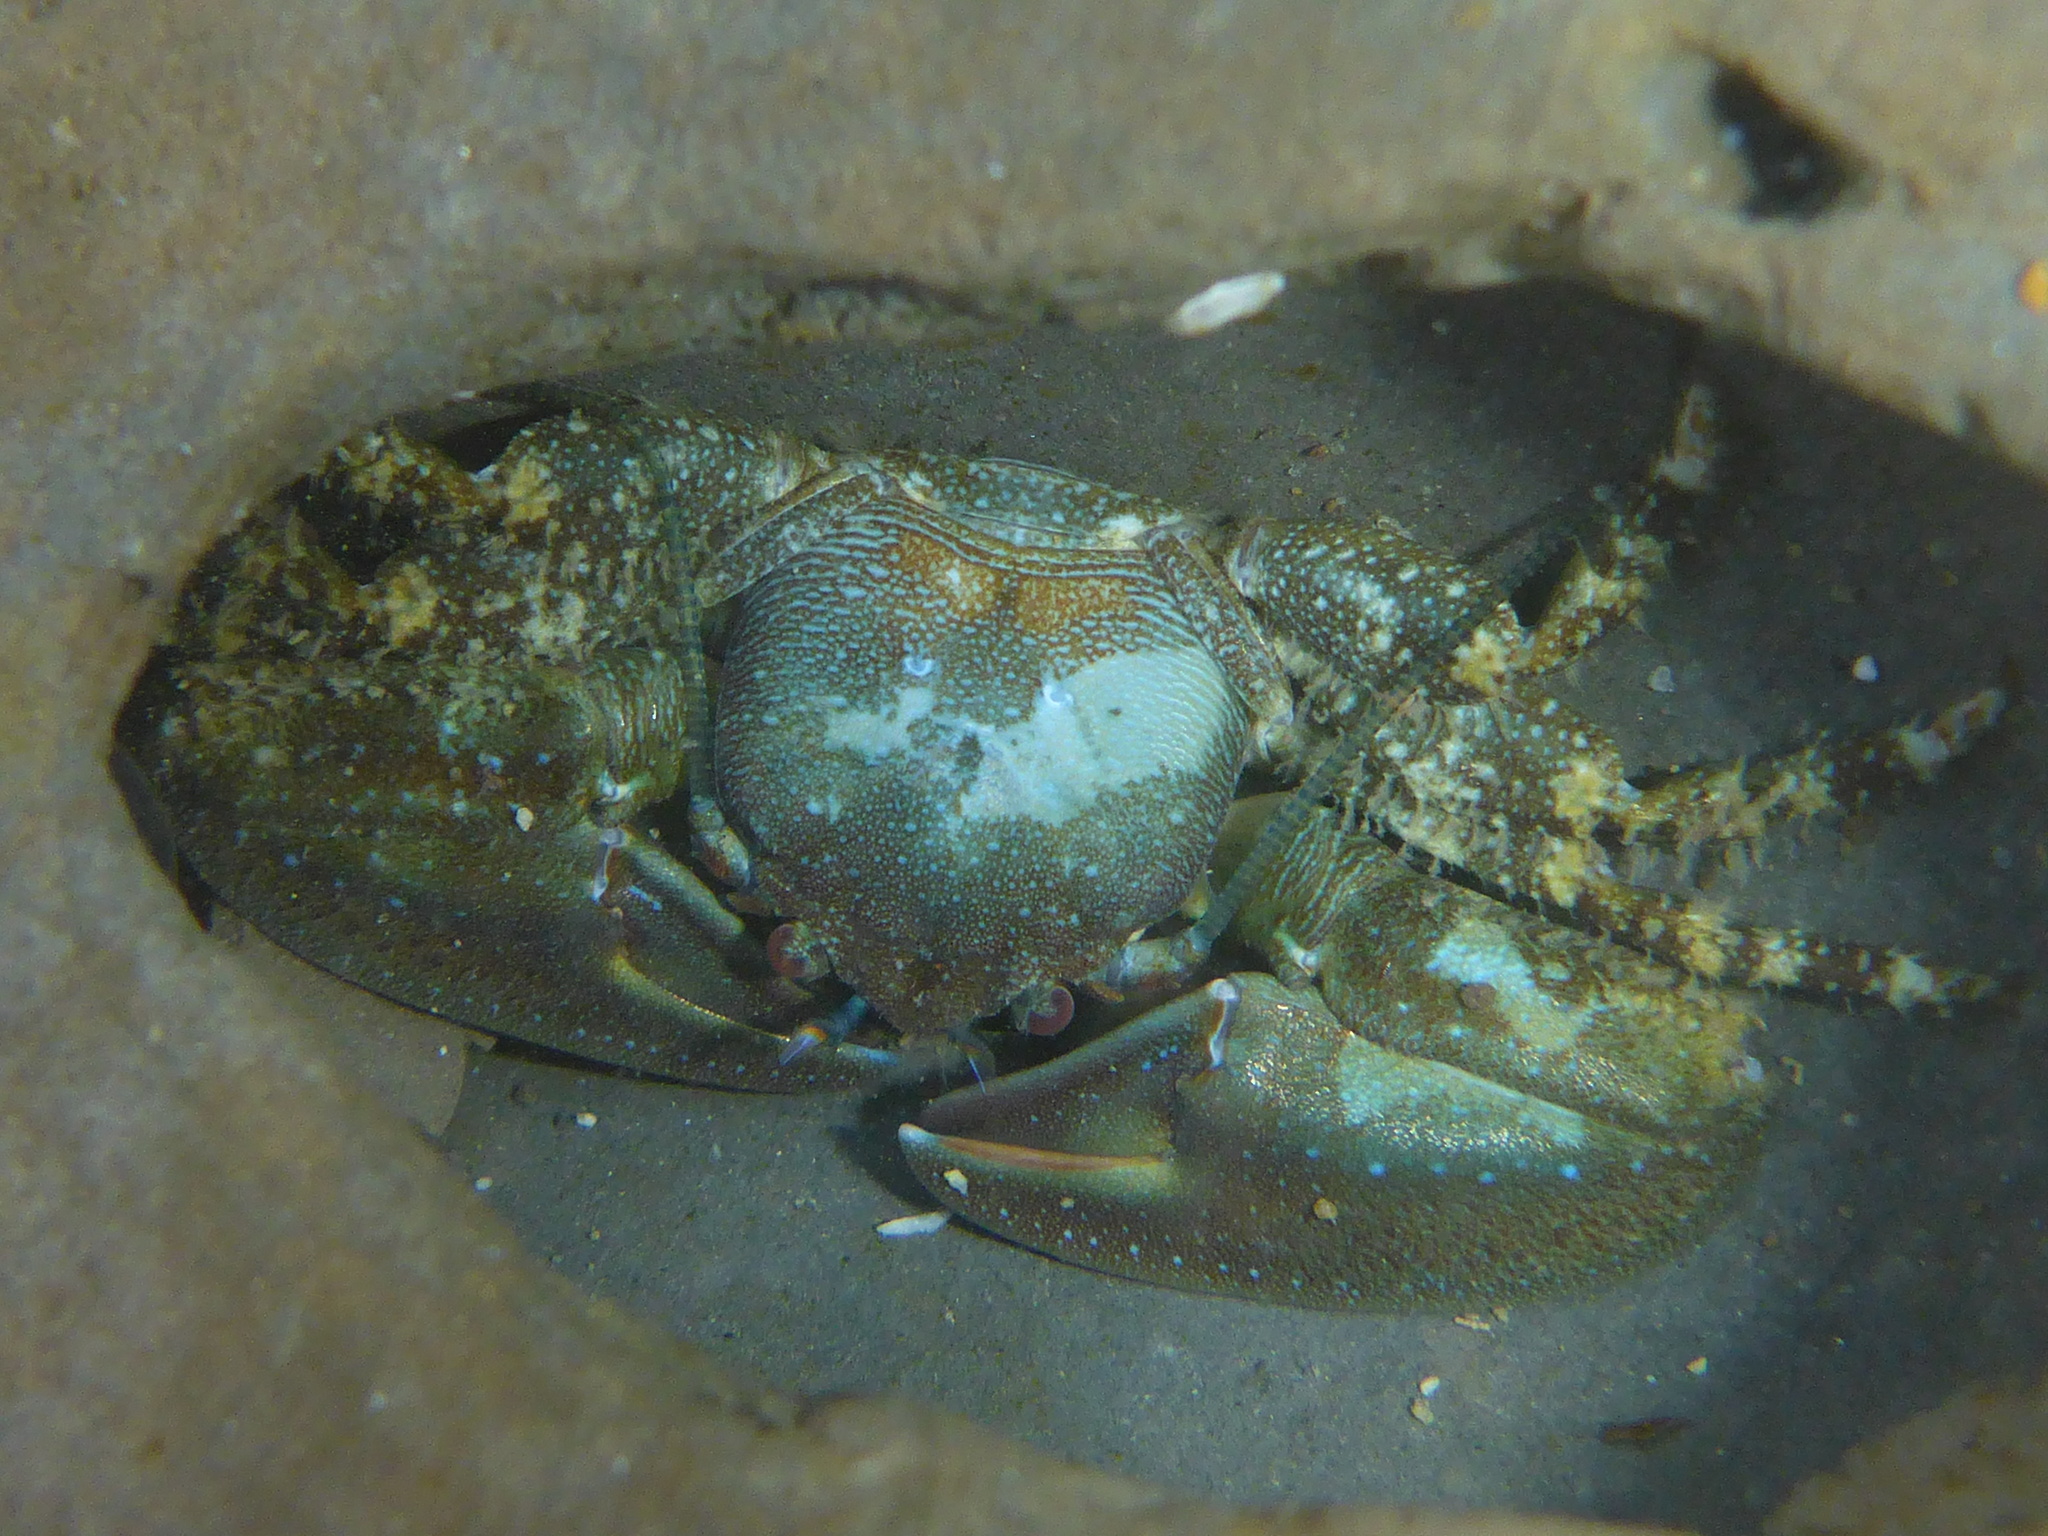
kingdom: Animalia
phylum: Arthropoda
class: Malacostraca
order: Decapoda
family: Porcellanidae
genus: Petrolisthes
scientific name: Petrolisthes manimaculis
